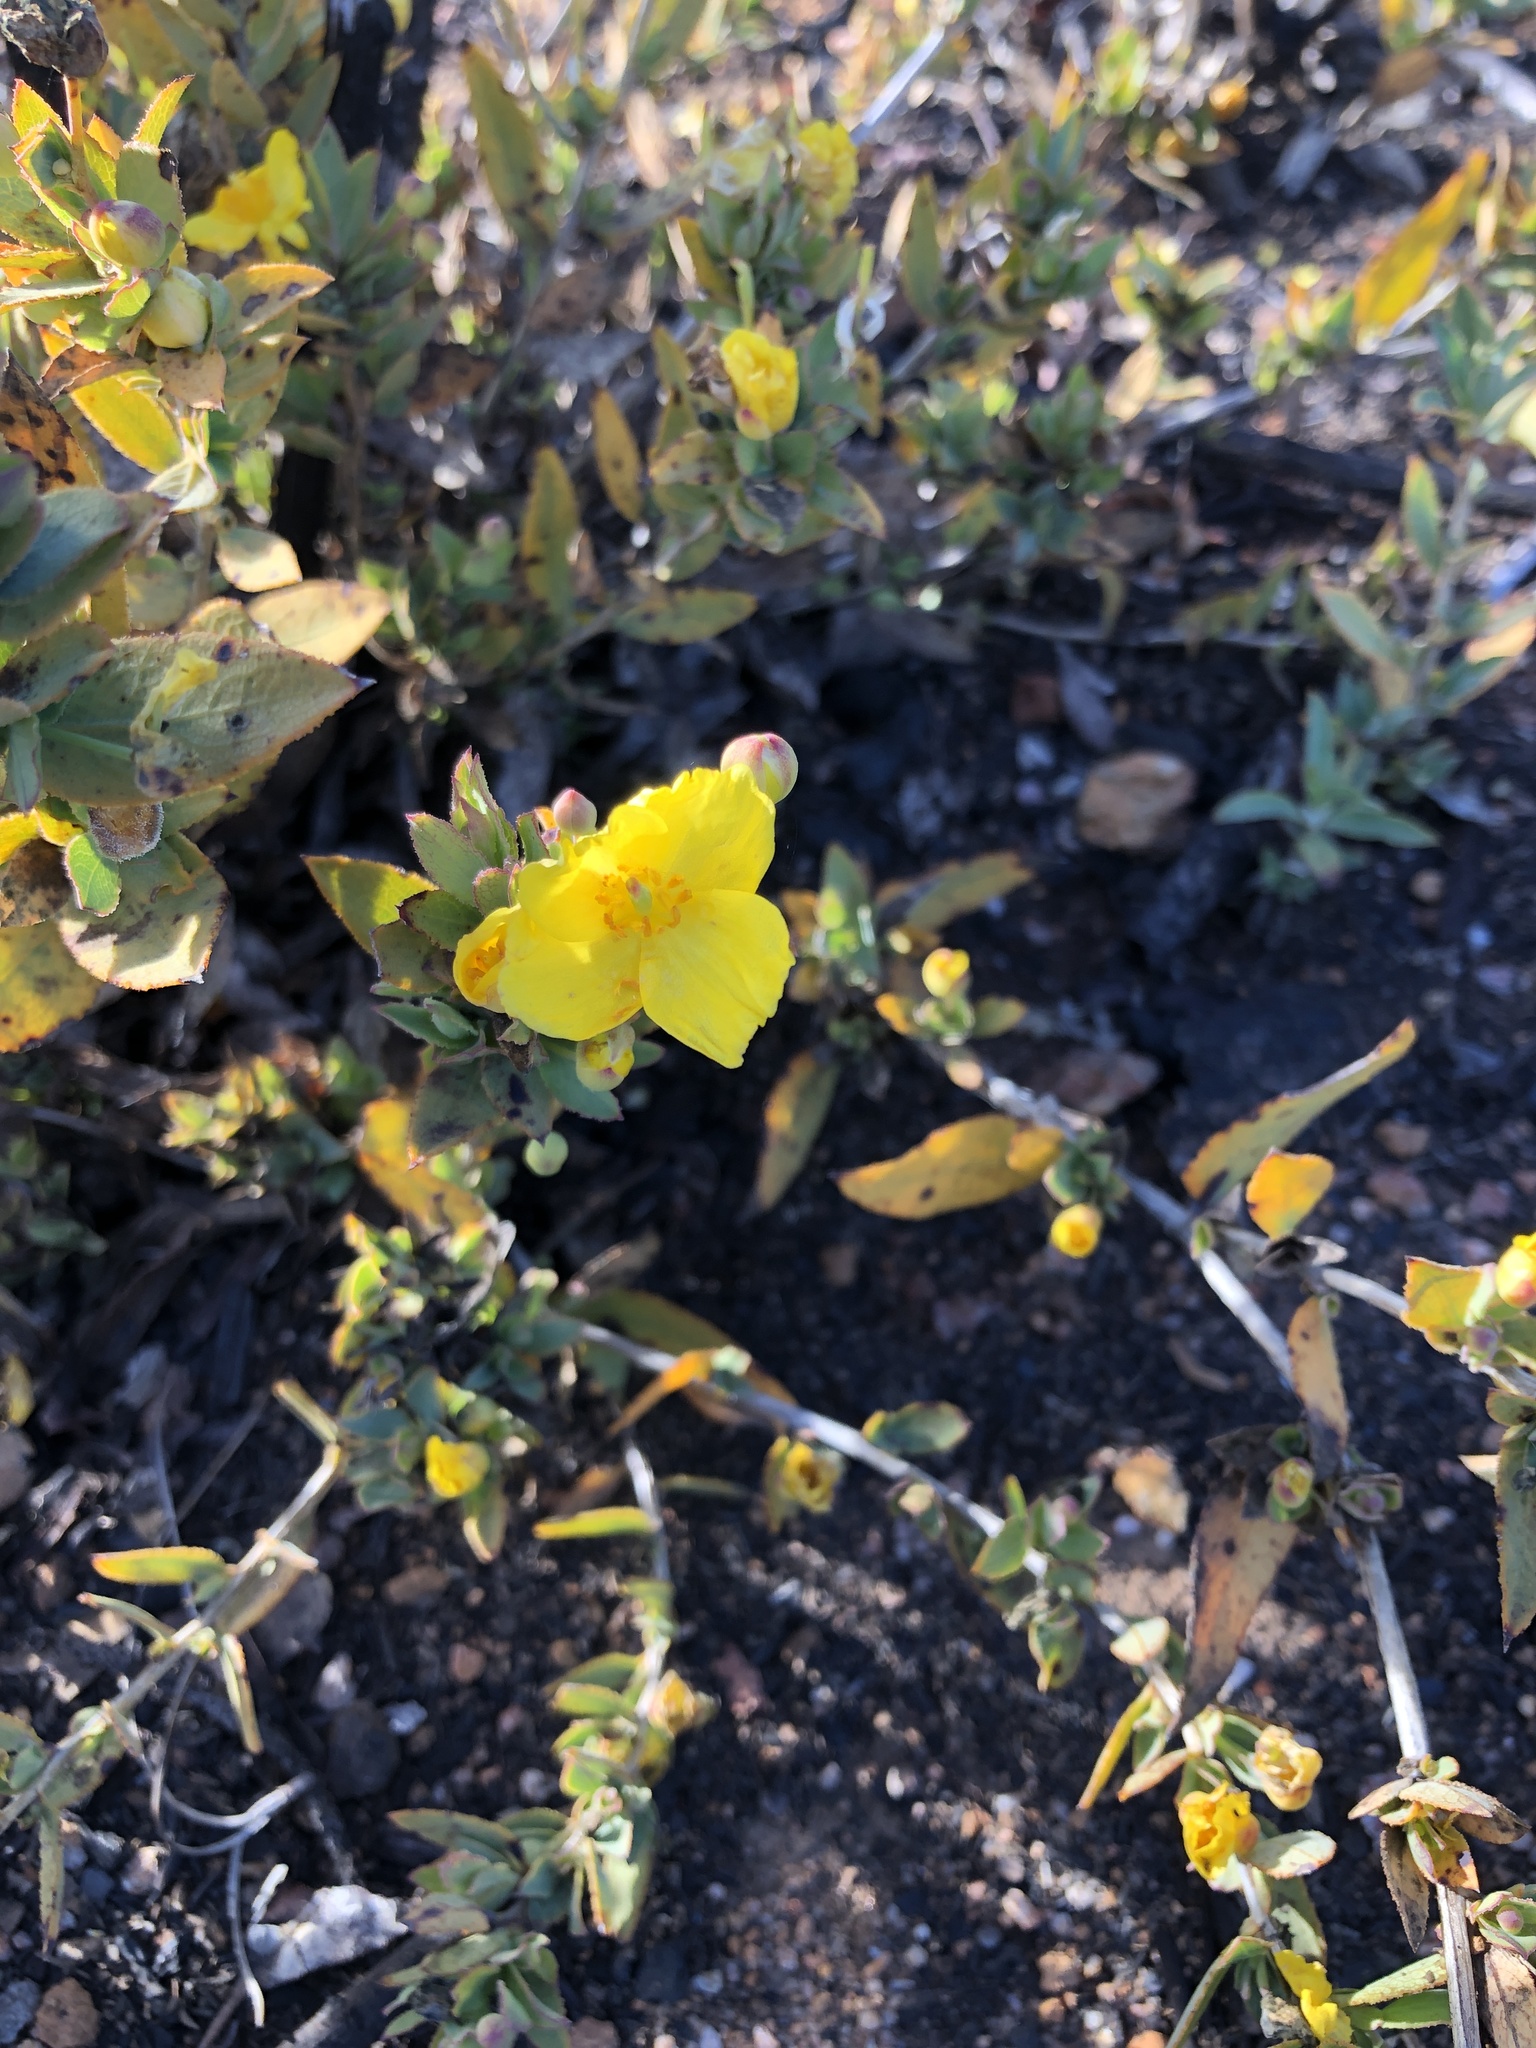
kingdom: Plantae
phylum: Tracheophyta
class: Magnoliopsida
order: Ranunculales
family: Papaveraceae
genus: Dendromecon
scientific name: Dendromecon rigida
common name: Tree poppy
